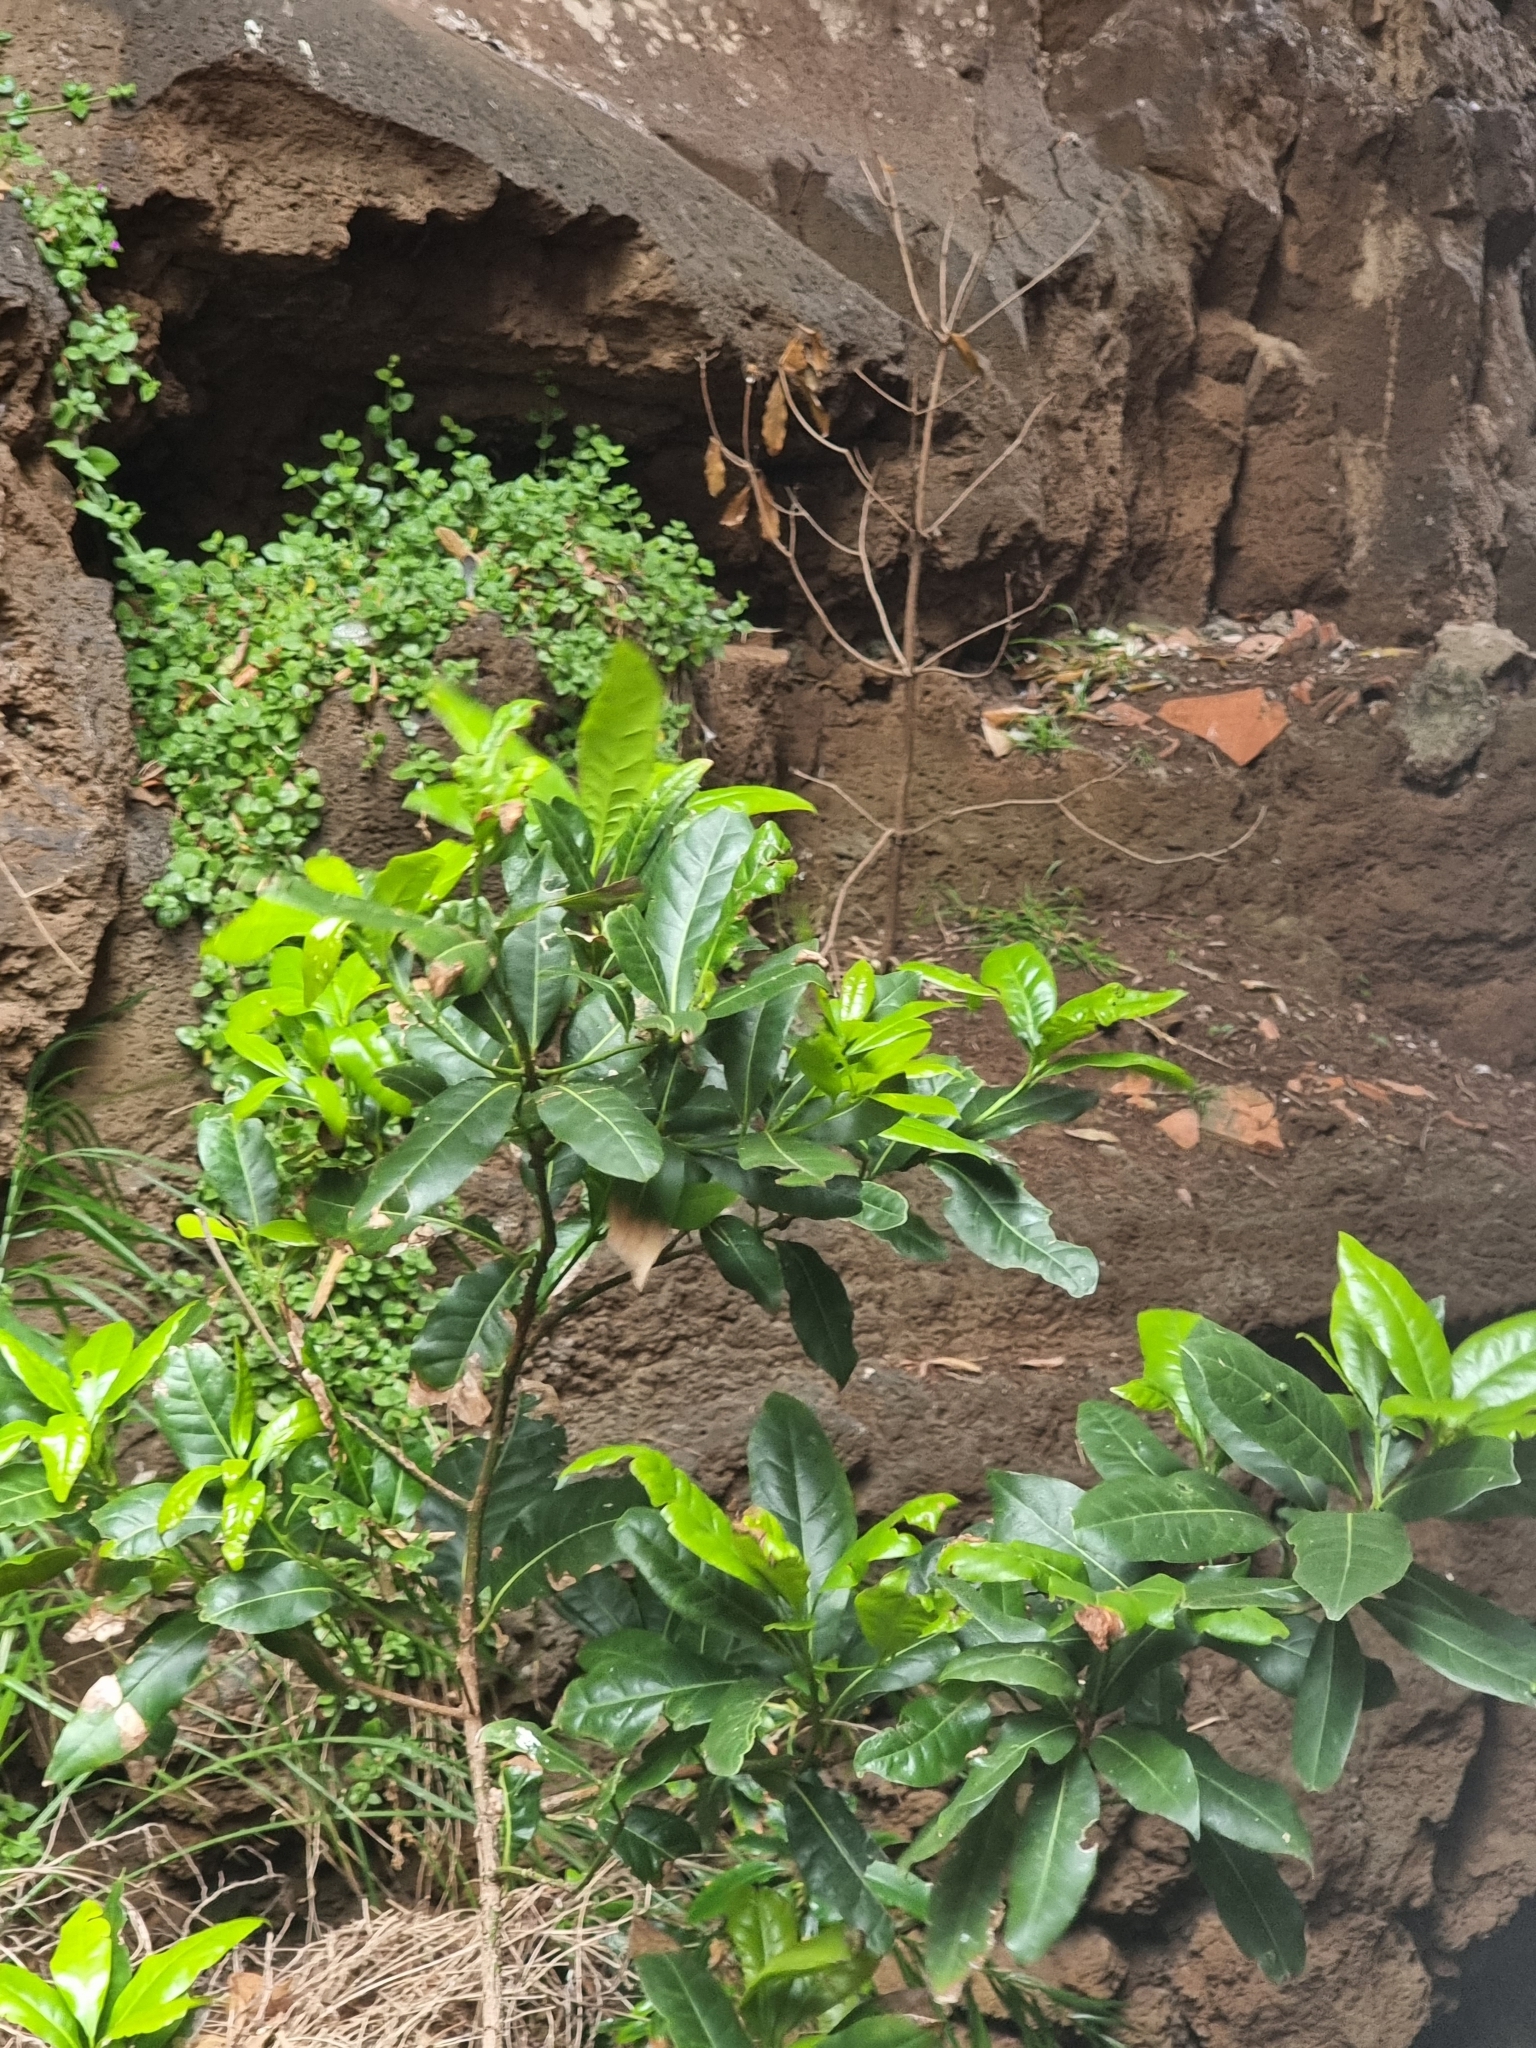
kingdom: Plantae
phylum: Tracheophyta
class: Magnoliopsida
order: Laurales
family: Lauraceae
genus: Apollonias
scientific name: Apollonias barbujana
